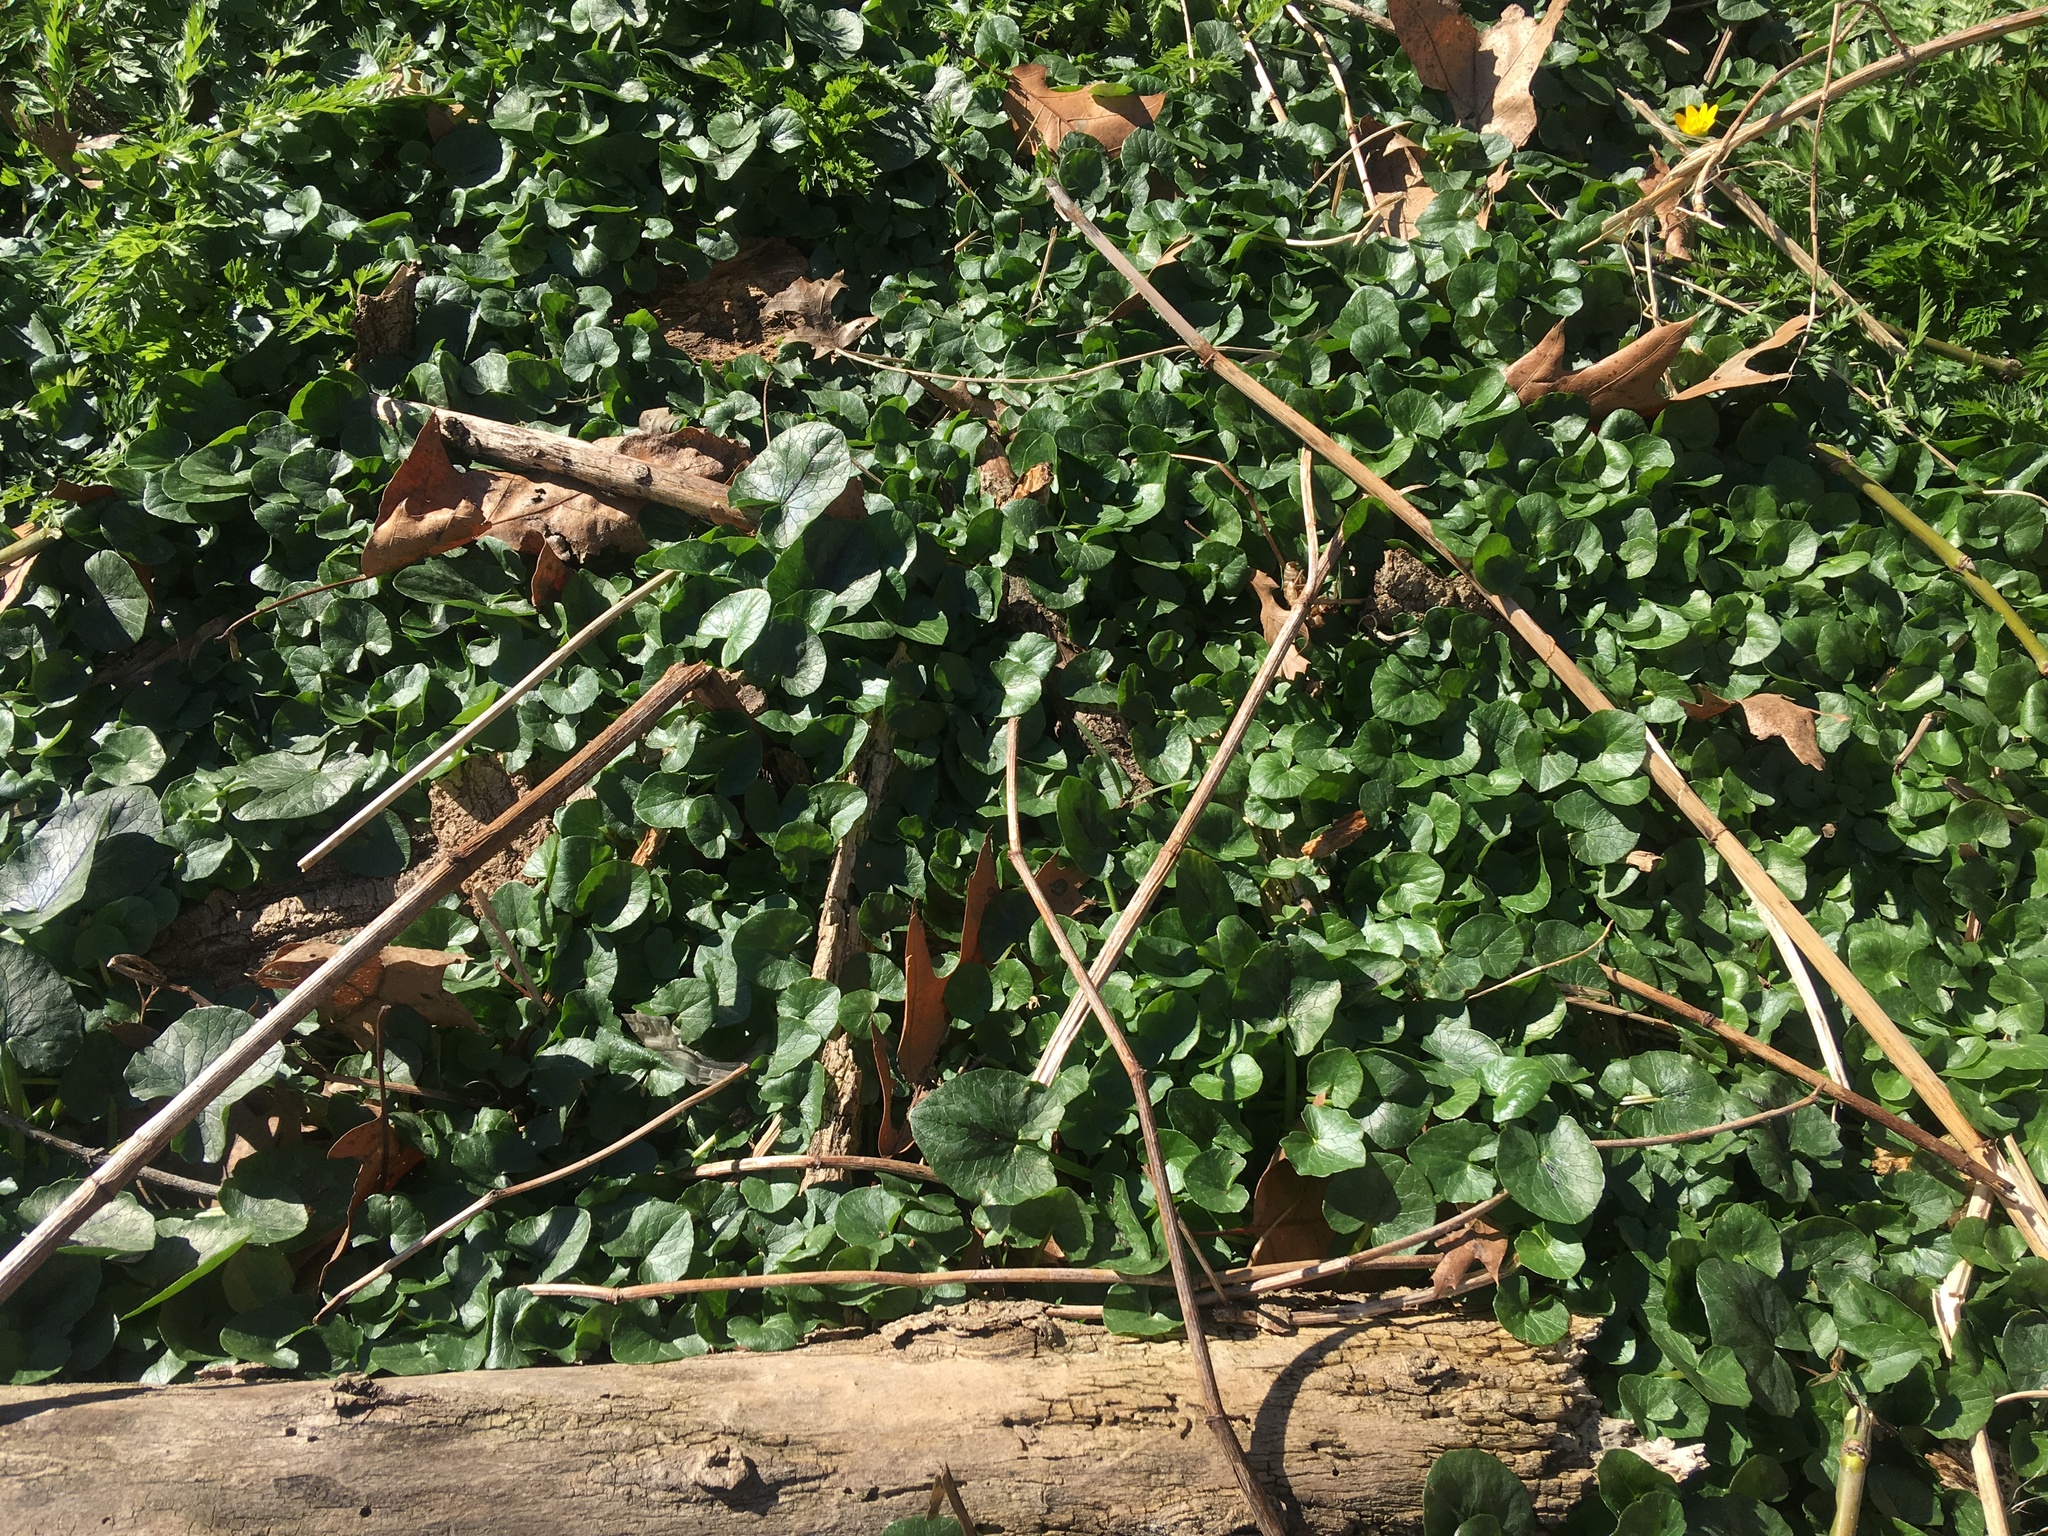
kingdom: Plantae
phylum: Tracheophyta
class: Magnoliopsida
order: Ranunculales
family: Ranunculaceae
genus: Ficaria
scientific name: Ficaria verna
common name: Lesser celandine
